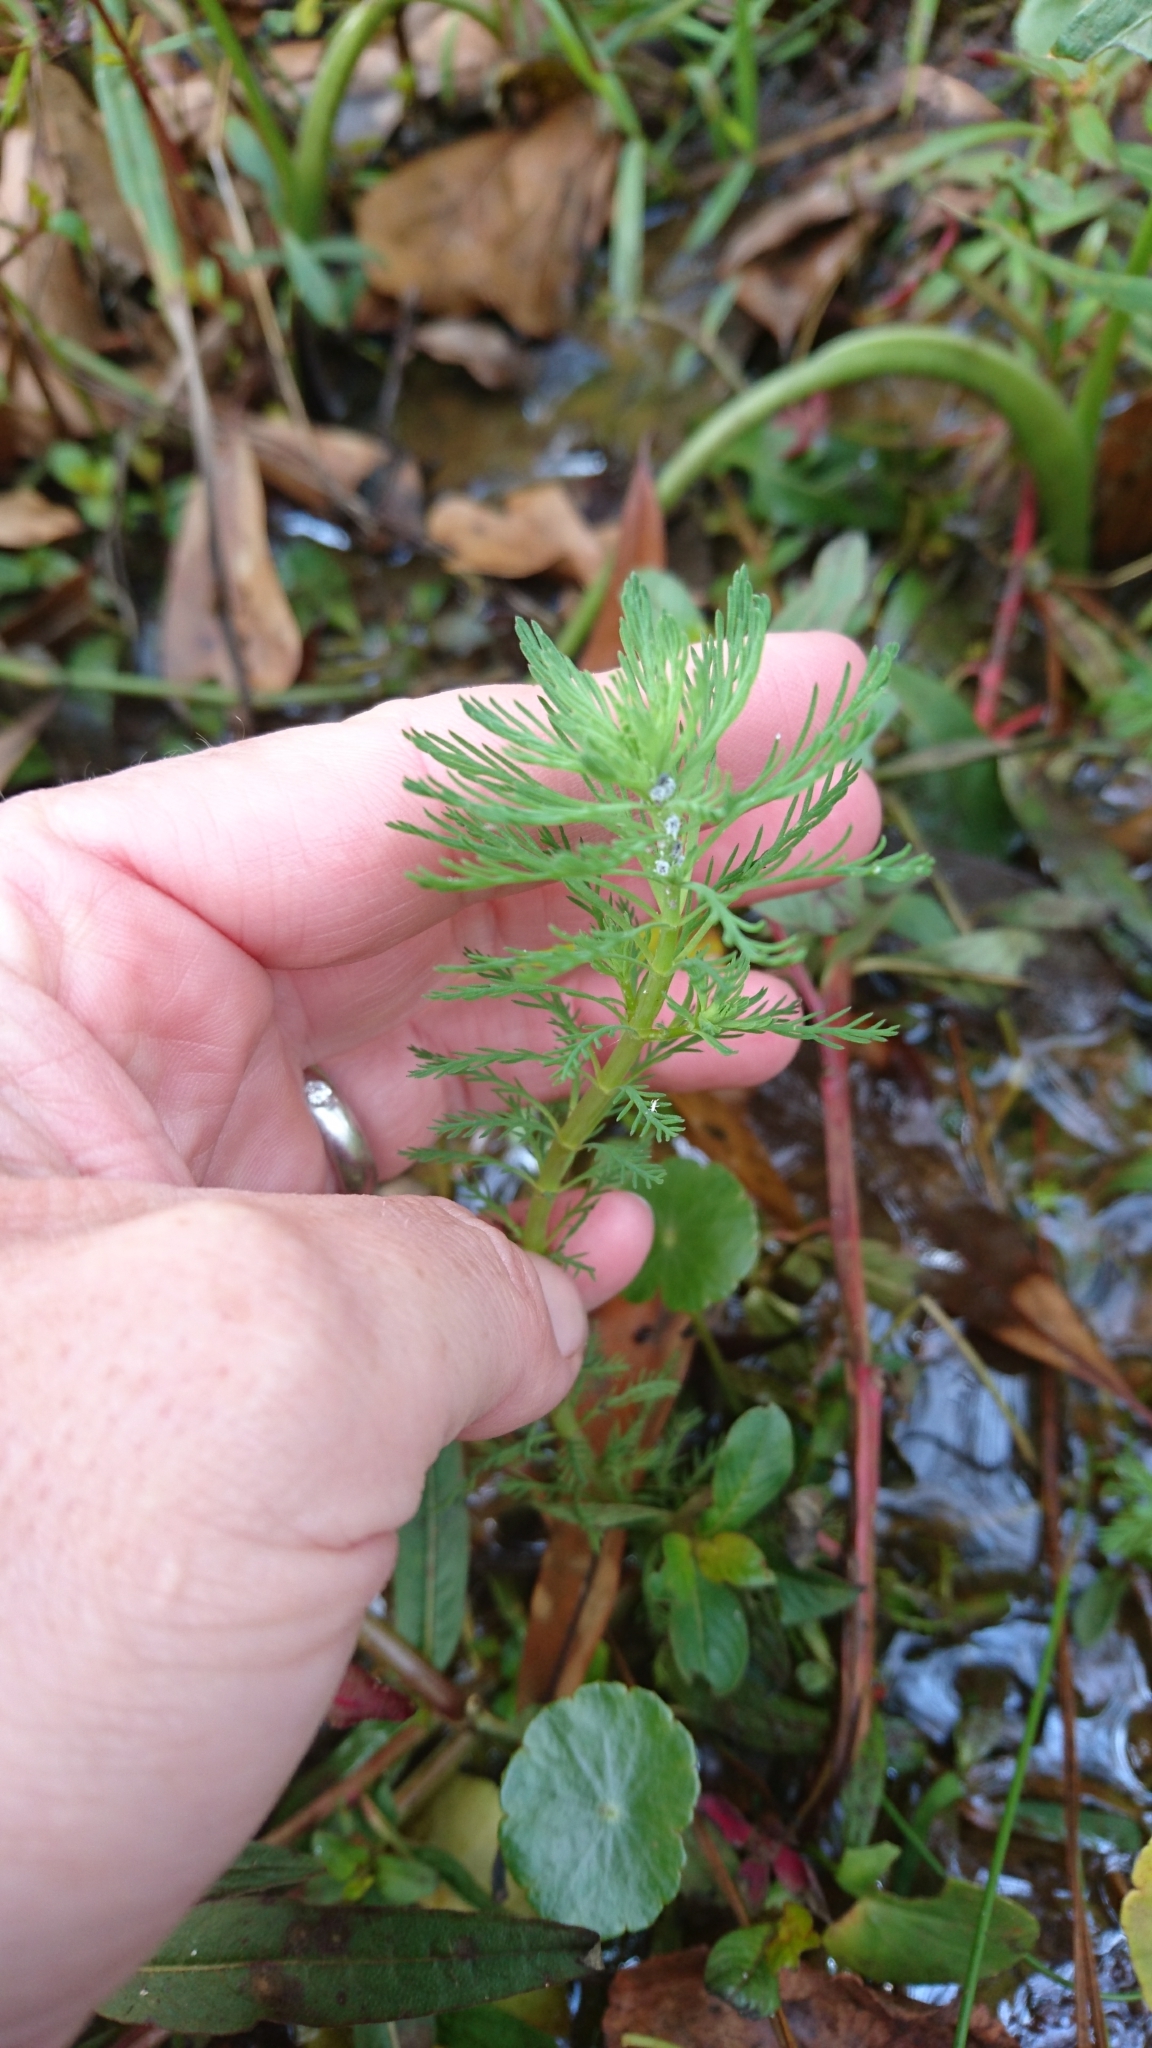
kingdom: Plantae
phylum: Tracheophyta
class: Magnoliopsida
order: Saxifragales
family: Haloragaceae
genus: Myriophyllum
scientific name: Myriophyllum aquaticum
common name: Parrot's feather
